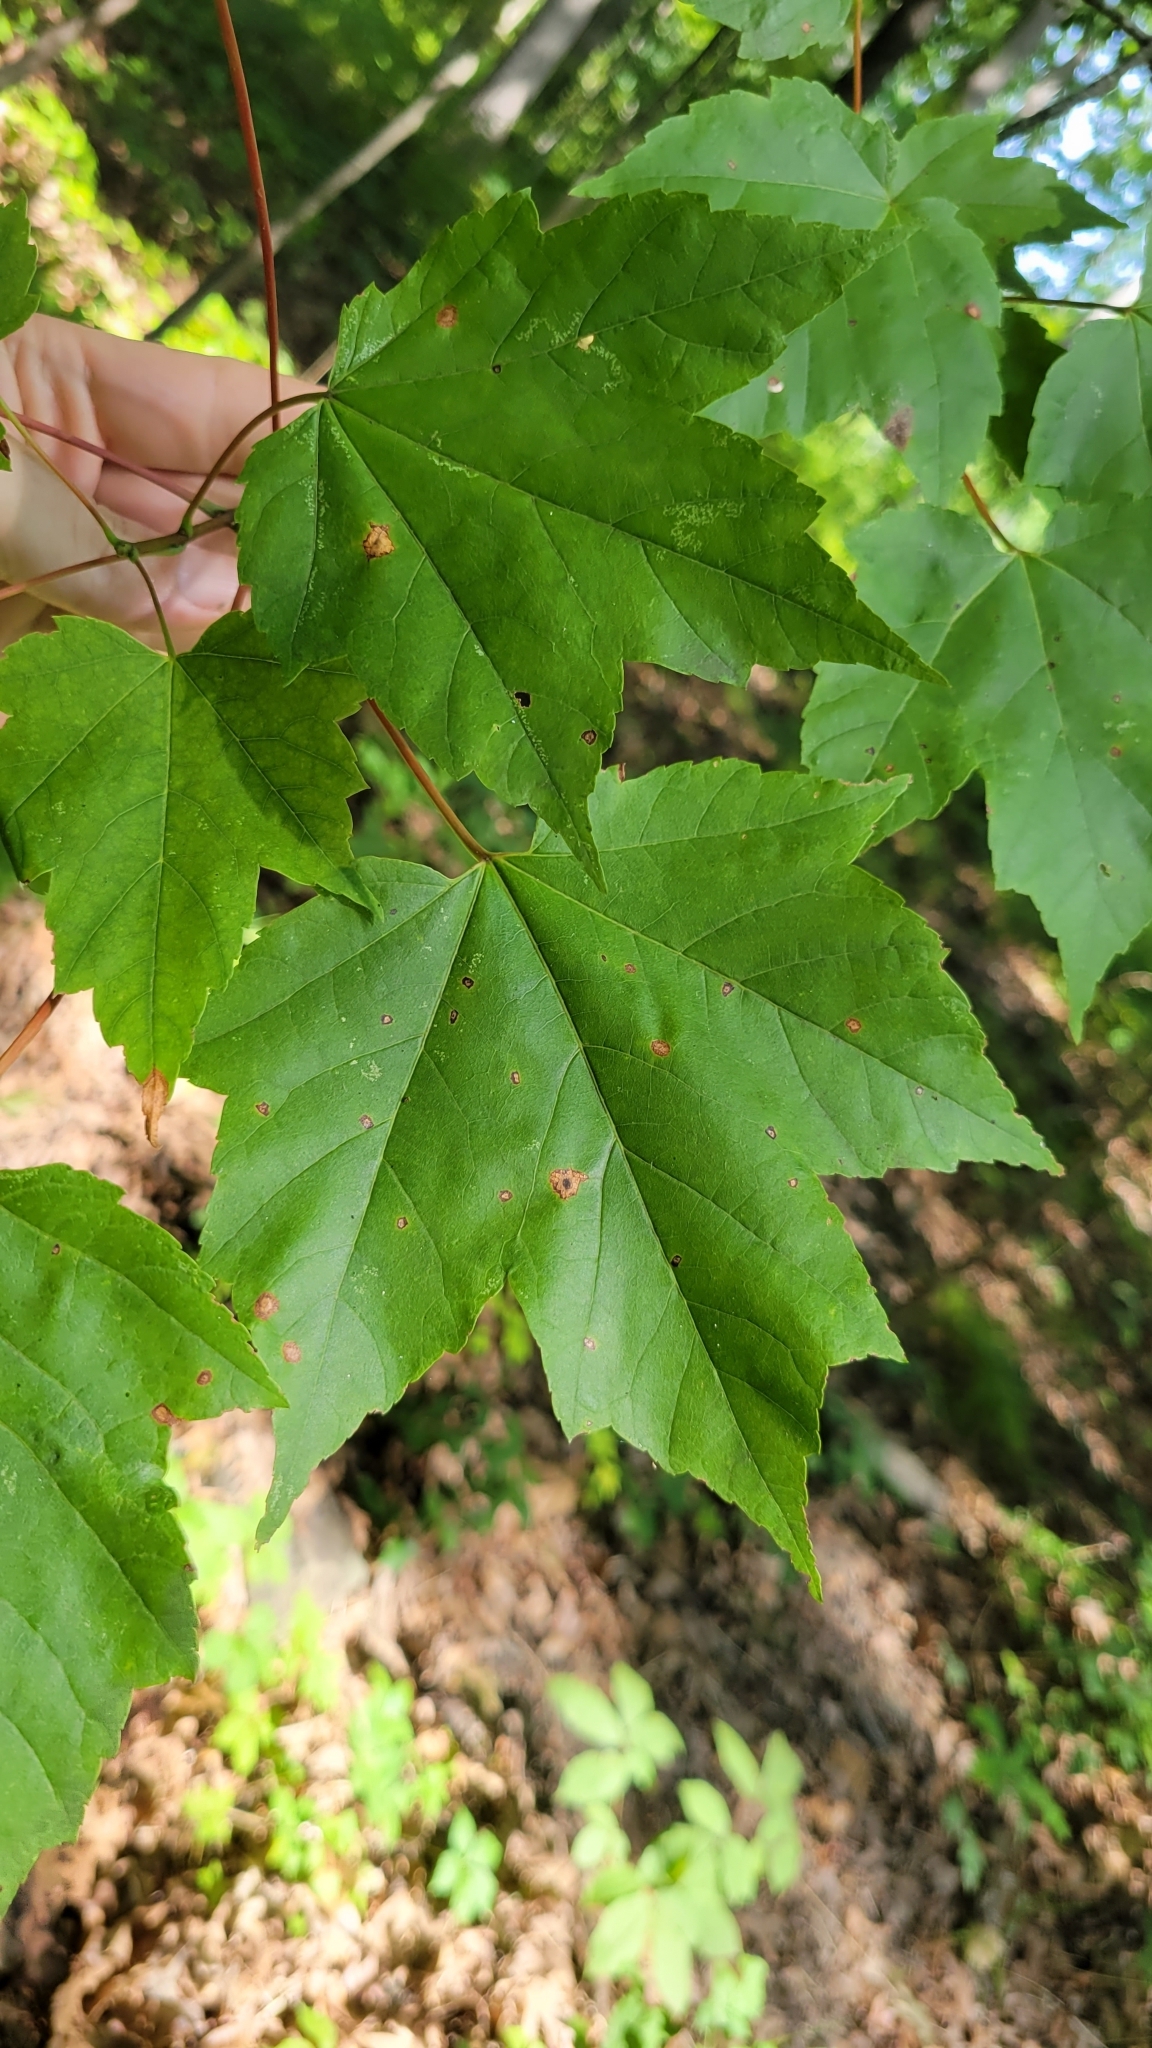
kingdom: Plantae
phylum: Tracheophyta
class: Magnoliopsida
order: Sapindales
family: Sapindaceae
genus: Acer
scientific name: Acer rubrum
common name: Red maple
